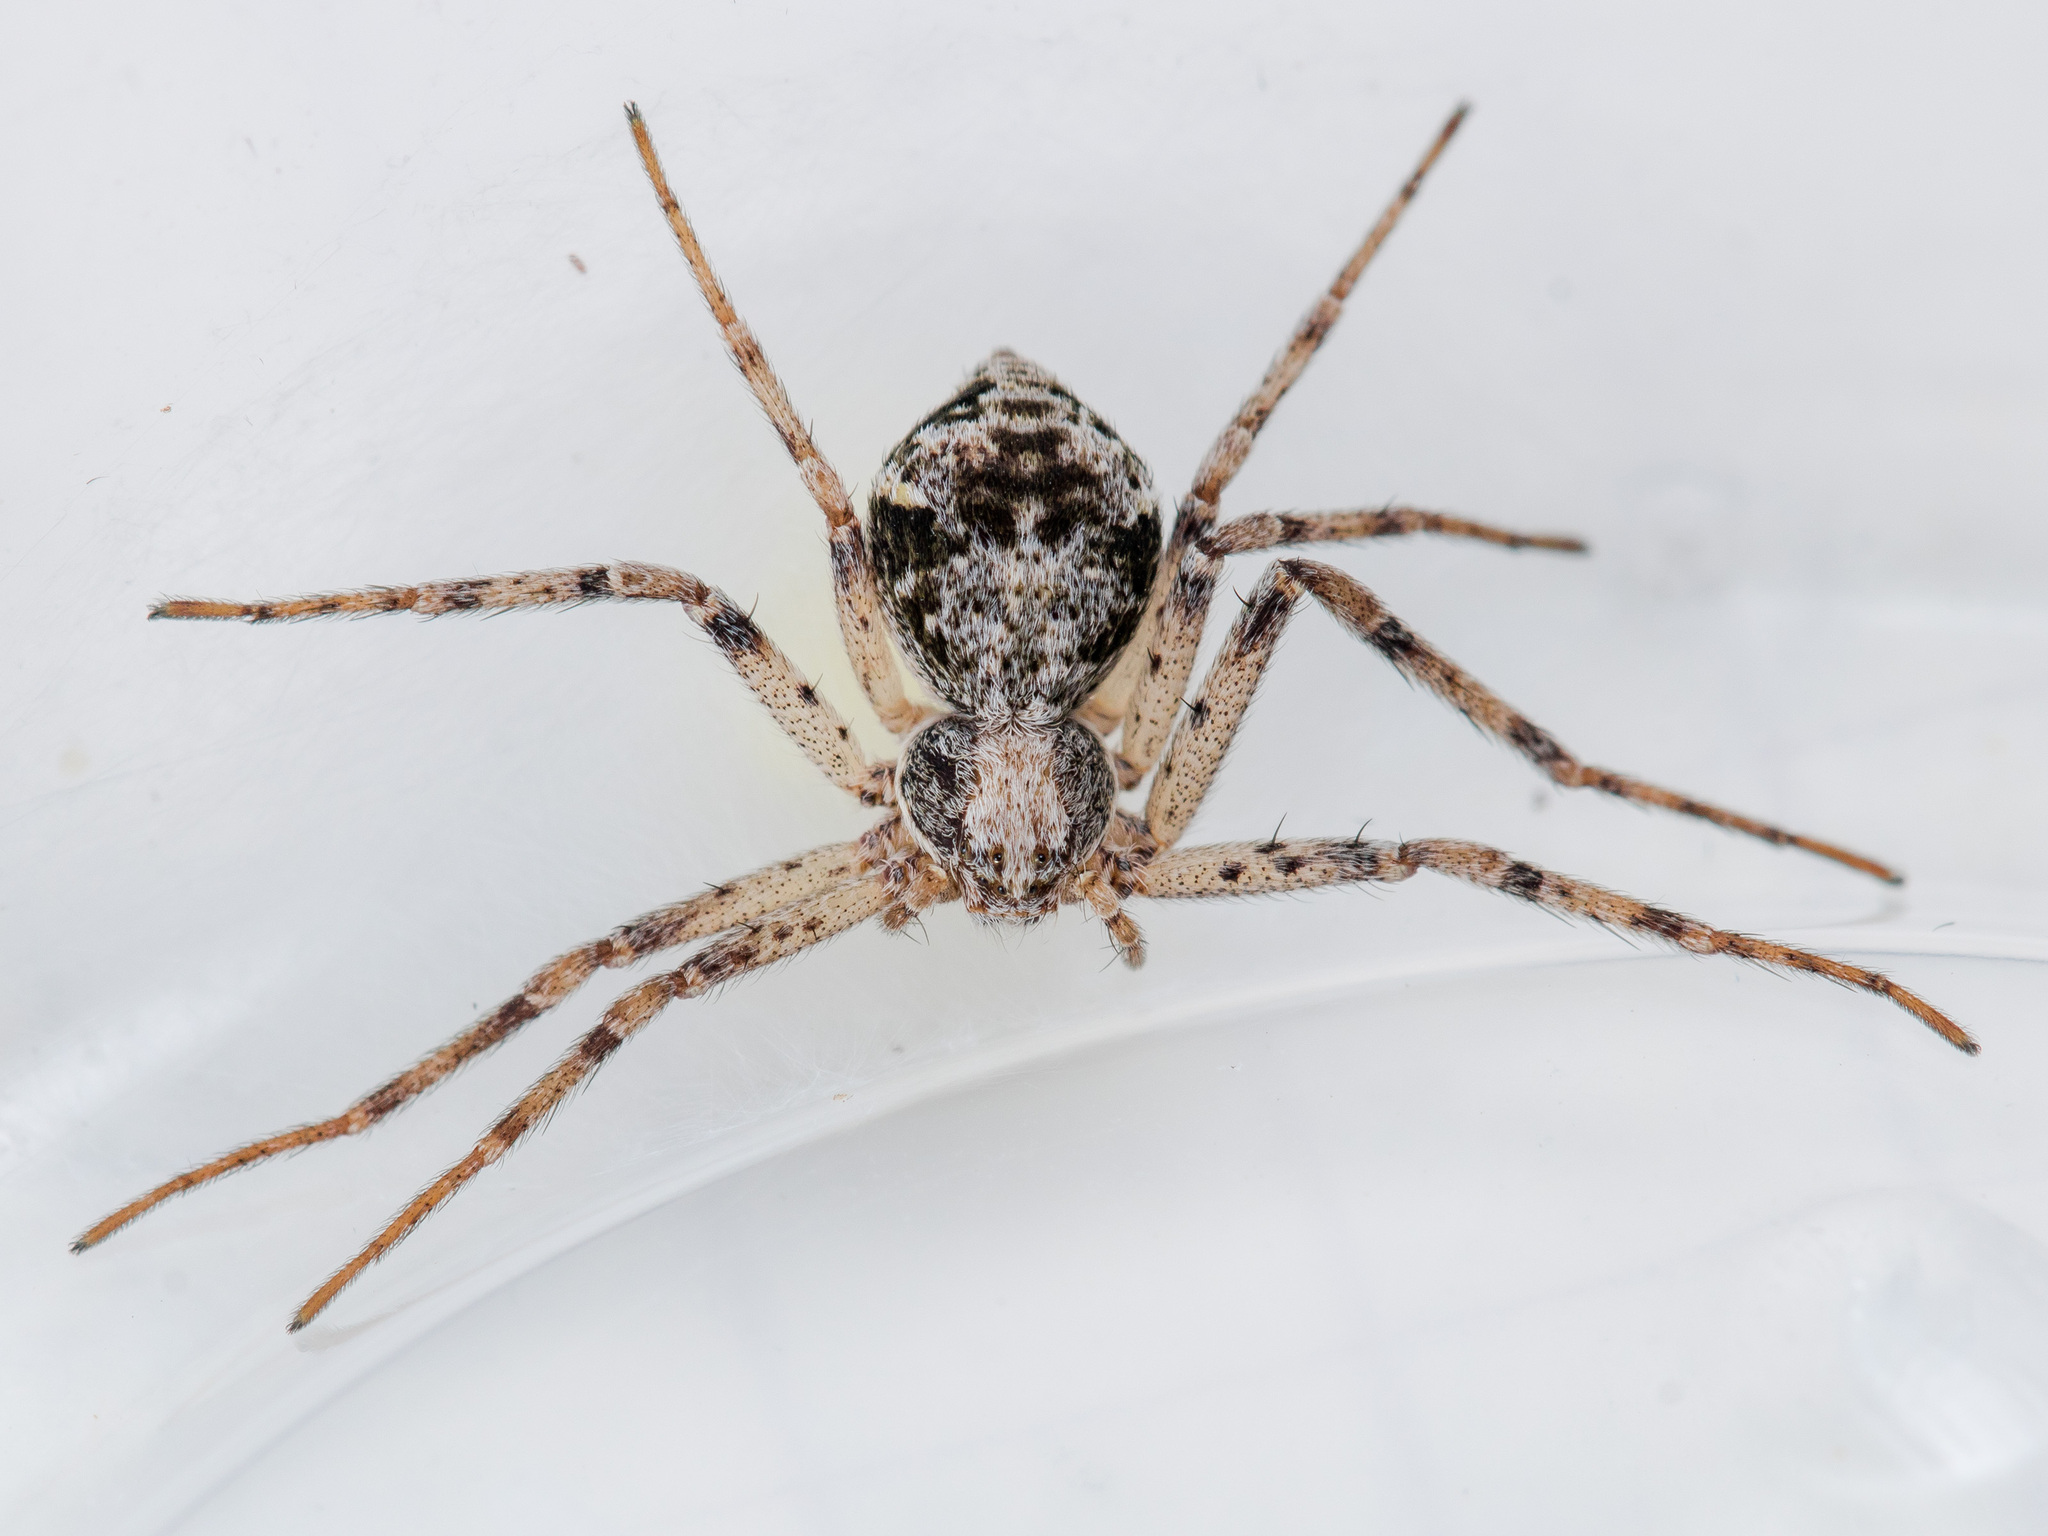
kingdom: Animalia
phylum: Arthropoda
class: Arachnida
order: Araneae
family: Philodromidae
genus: Rhysodromus
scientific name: Rhysodromus pictus
